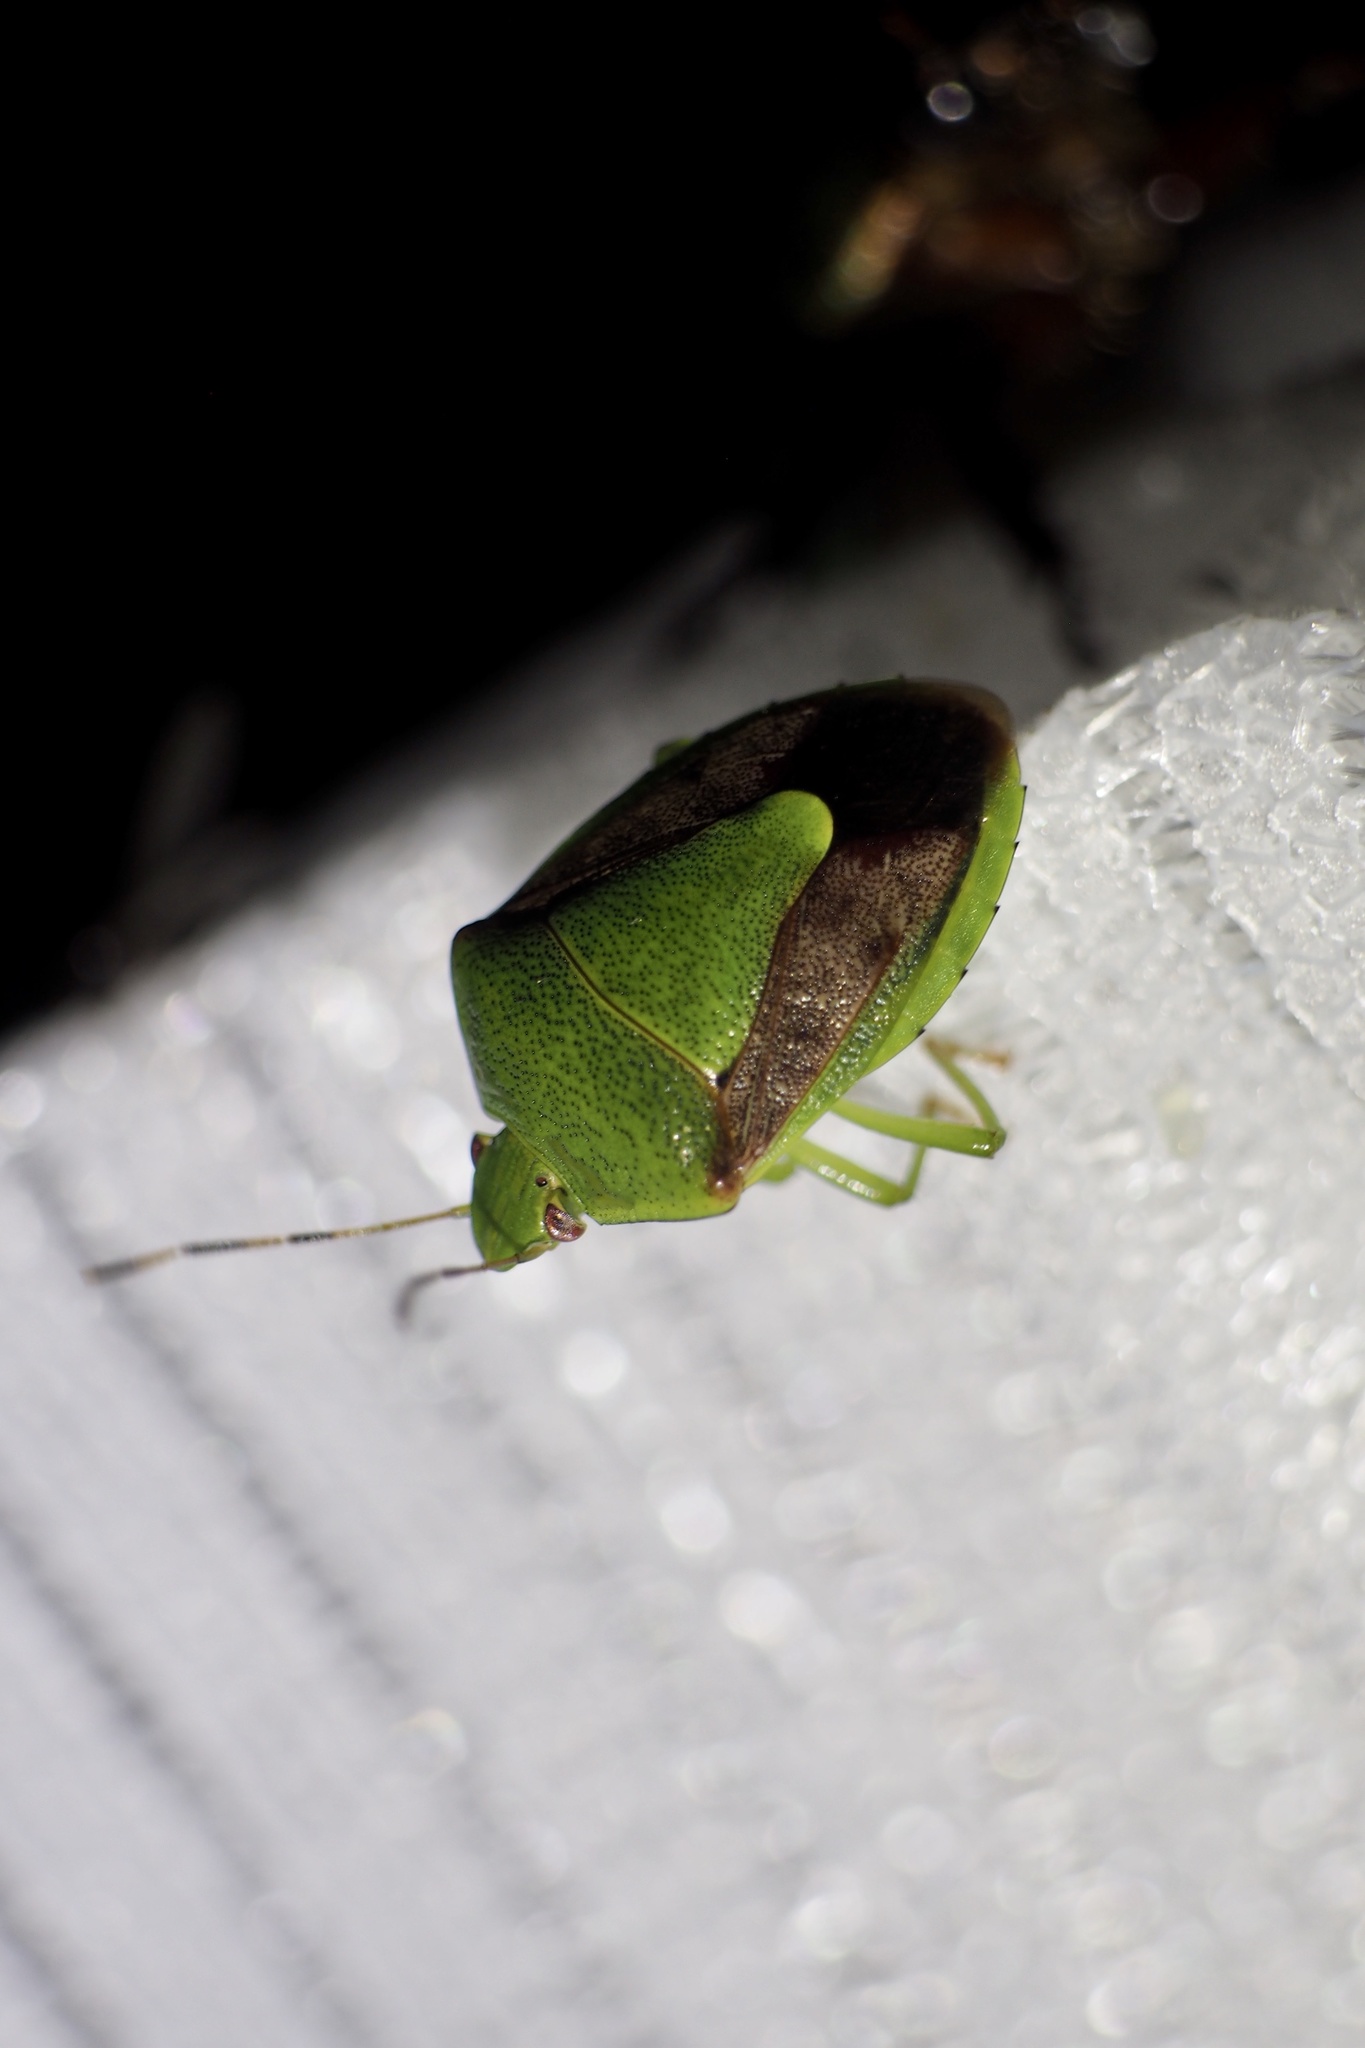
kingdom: Animalia
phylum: Arthropoda
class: Insecta
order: Hemiptera
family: Pentatomidae
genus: Plautia
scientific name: Plautia stali
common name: Stink bug
